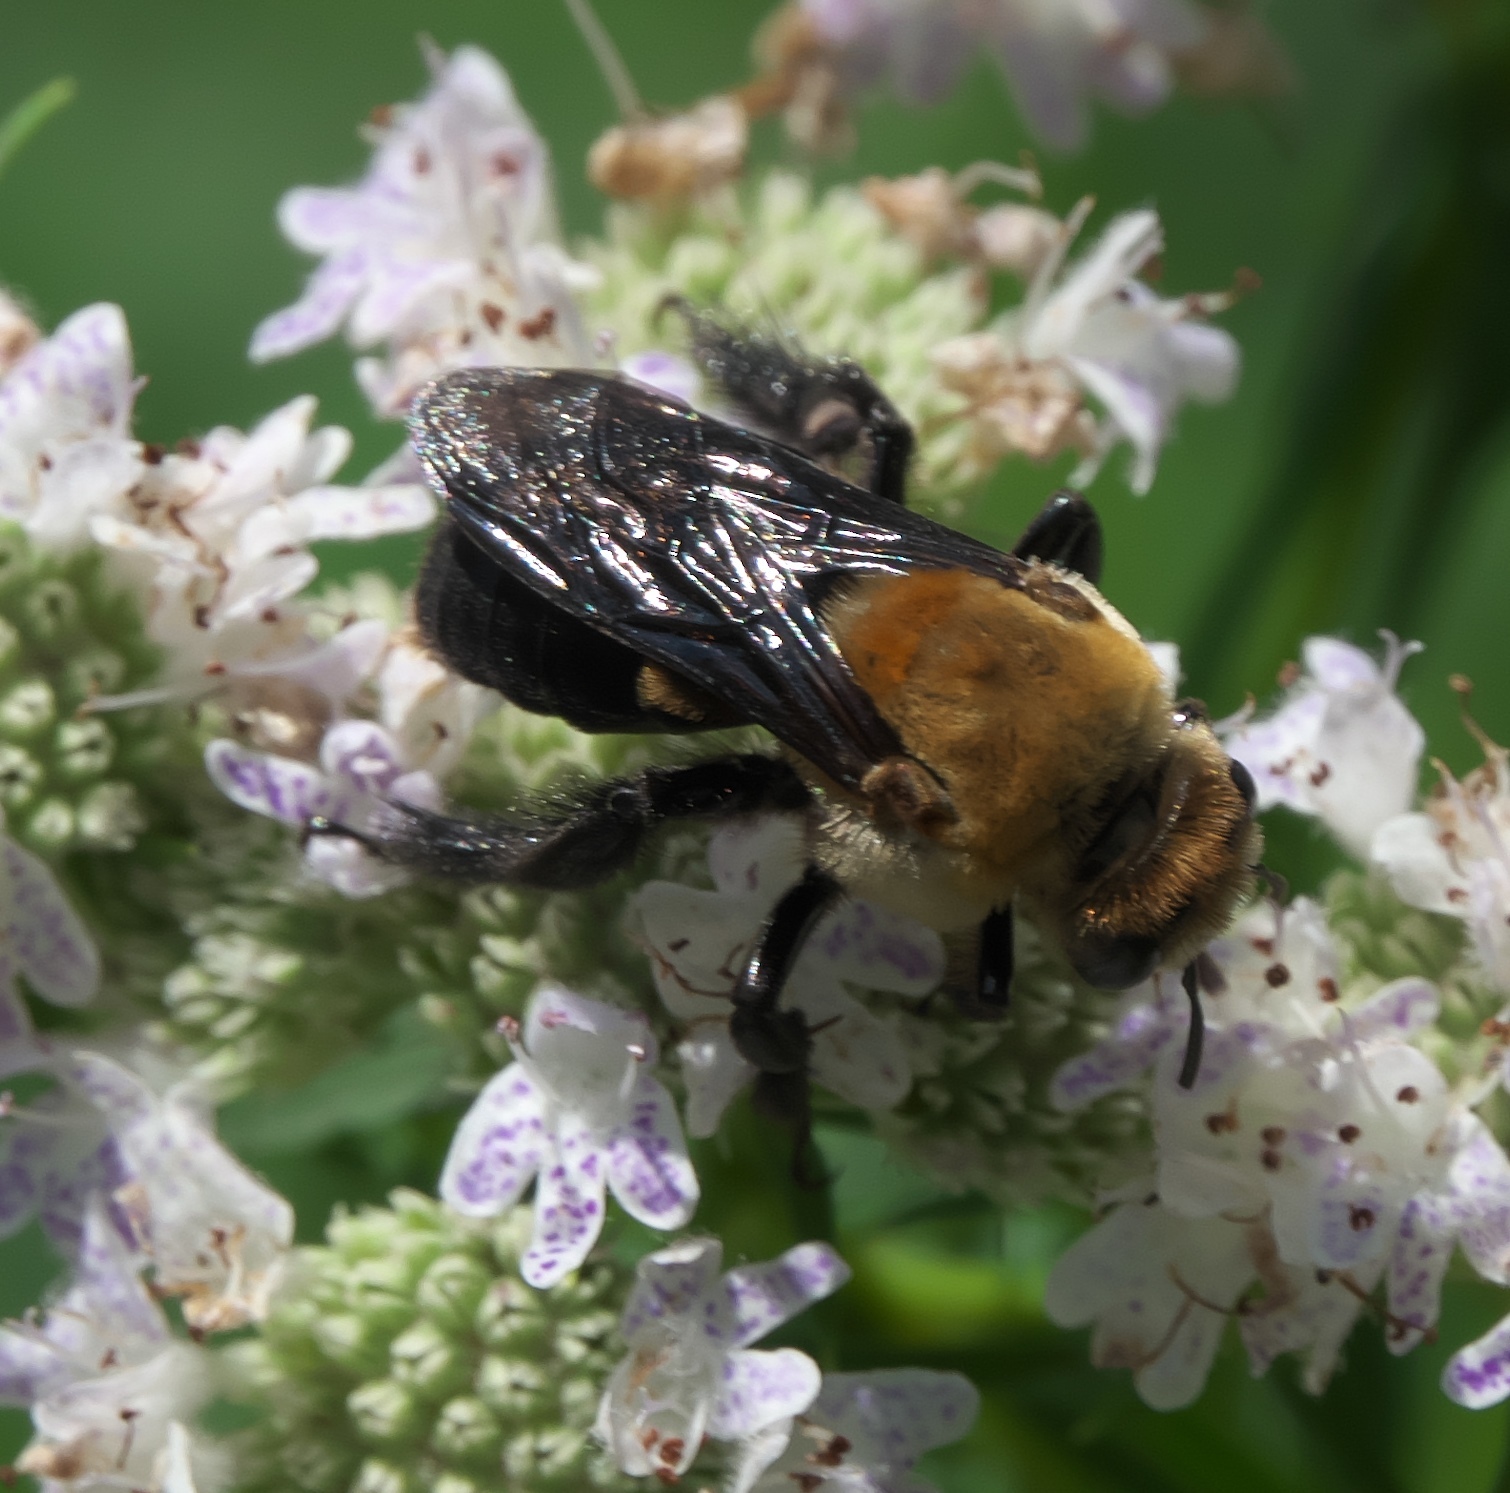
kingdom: Animalia
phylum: Arthropoda
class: Insecta
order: Hymenoptera
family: Apidae
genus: Ptilothrix
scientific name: Ptilothrix bombiformis
